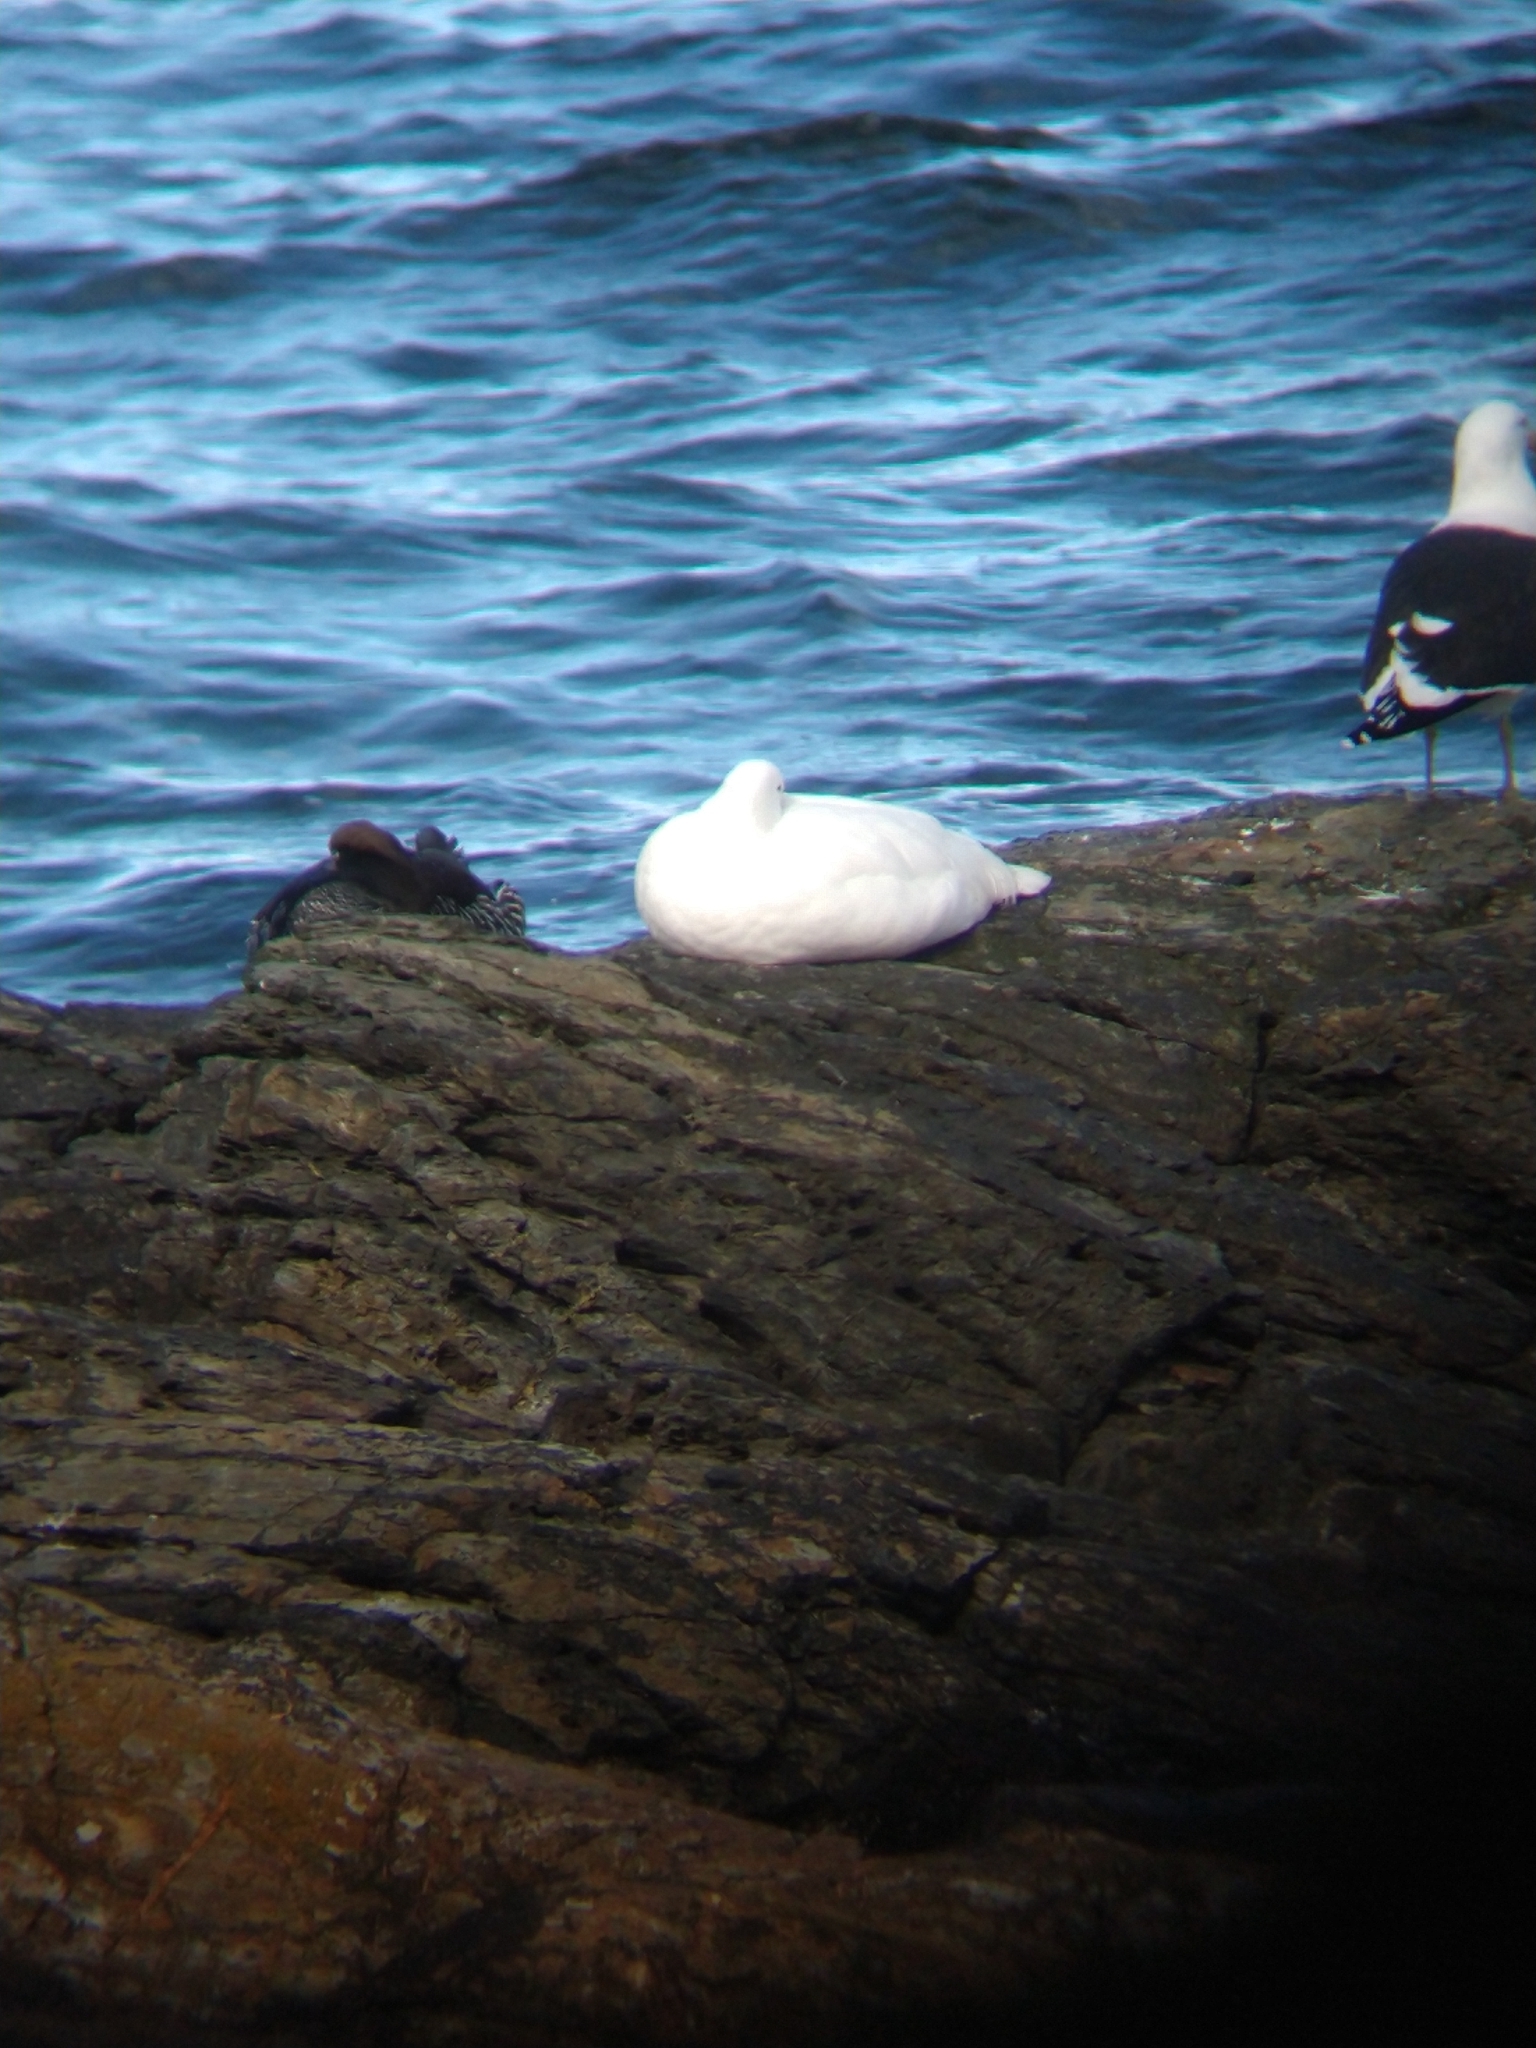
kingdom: Animalia
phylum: Chordata
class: Aves
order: Anseriformes
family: Anatidae
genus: Chloephaga
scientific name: Chloephaga hybrida
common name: Kelp goose
